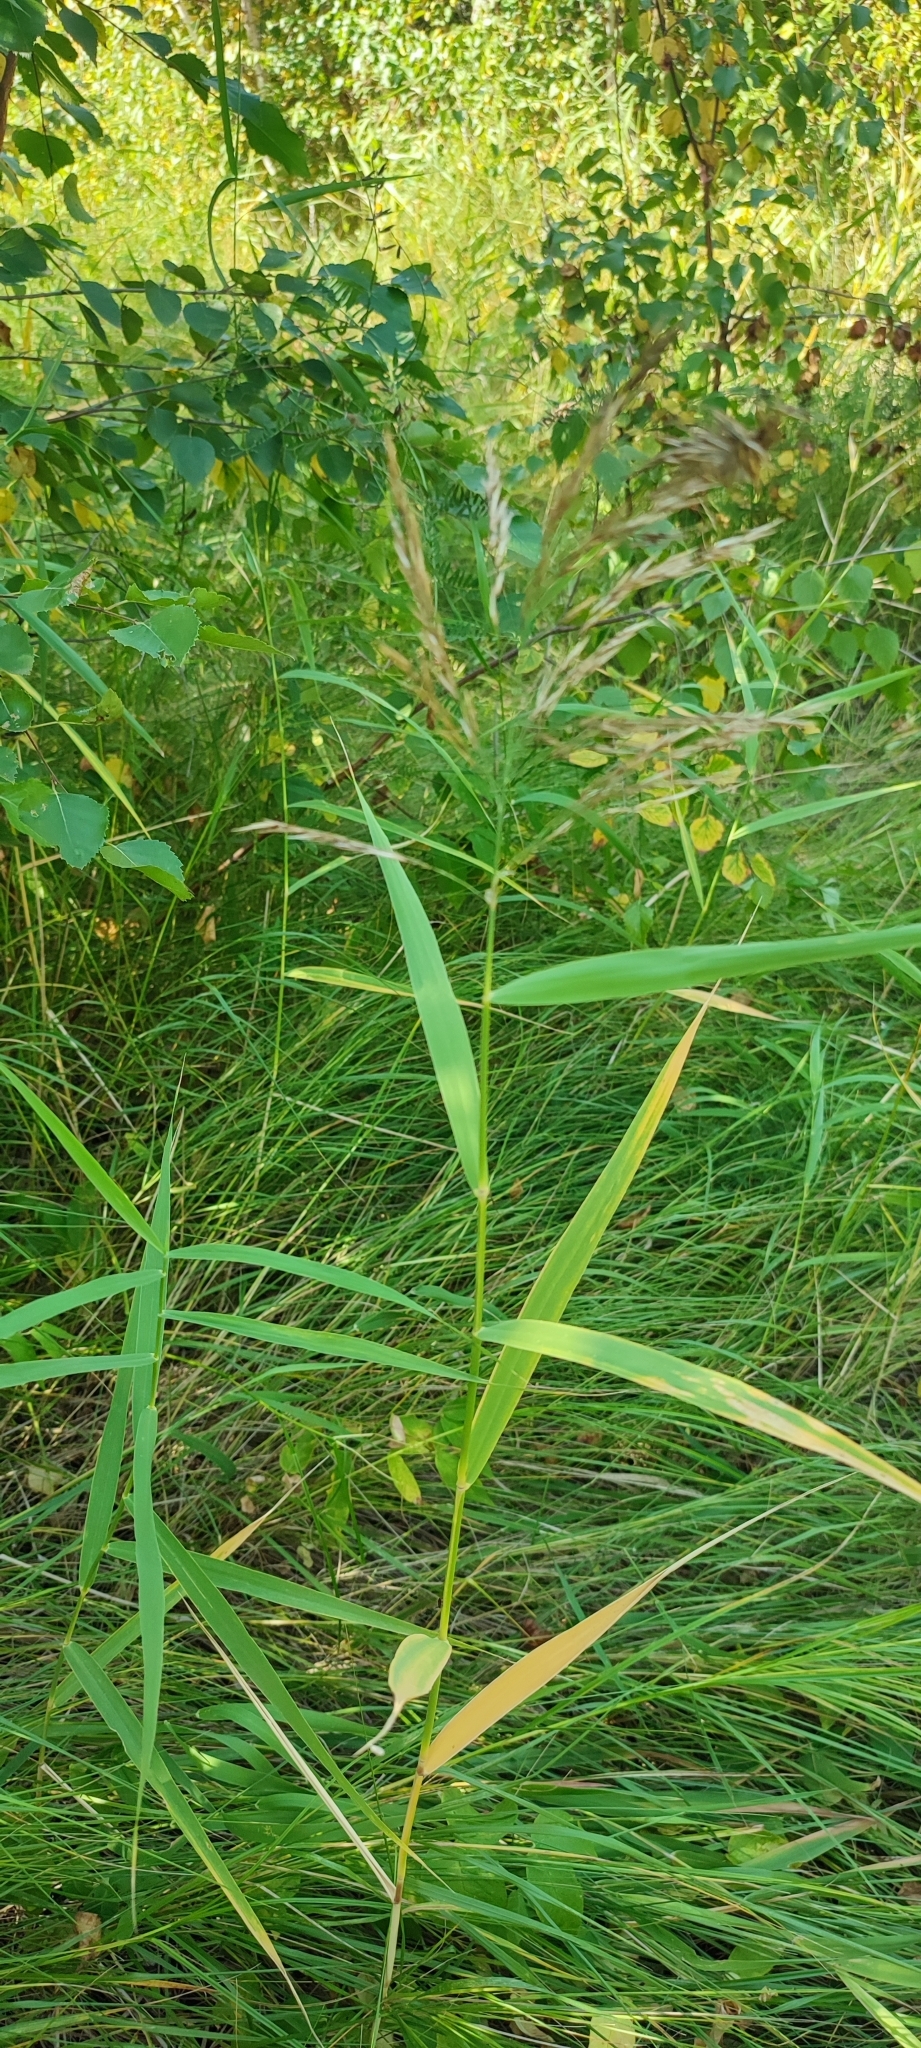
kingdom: Plantae
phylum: Tracheophyta
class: Liliopsida
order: Poales
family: Poaceae
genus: Phragmites
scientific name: Phragmites australis
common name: Common reed
